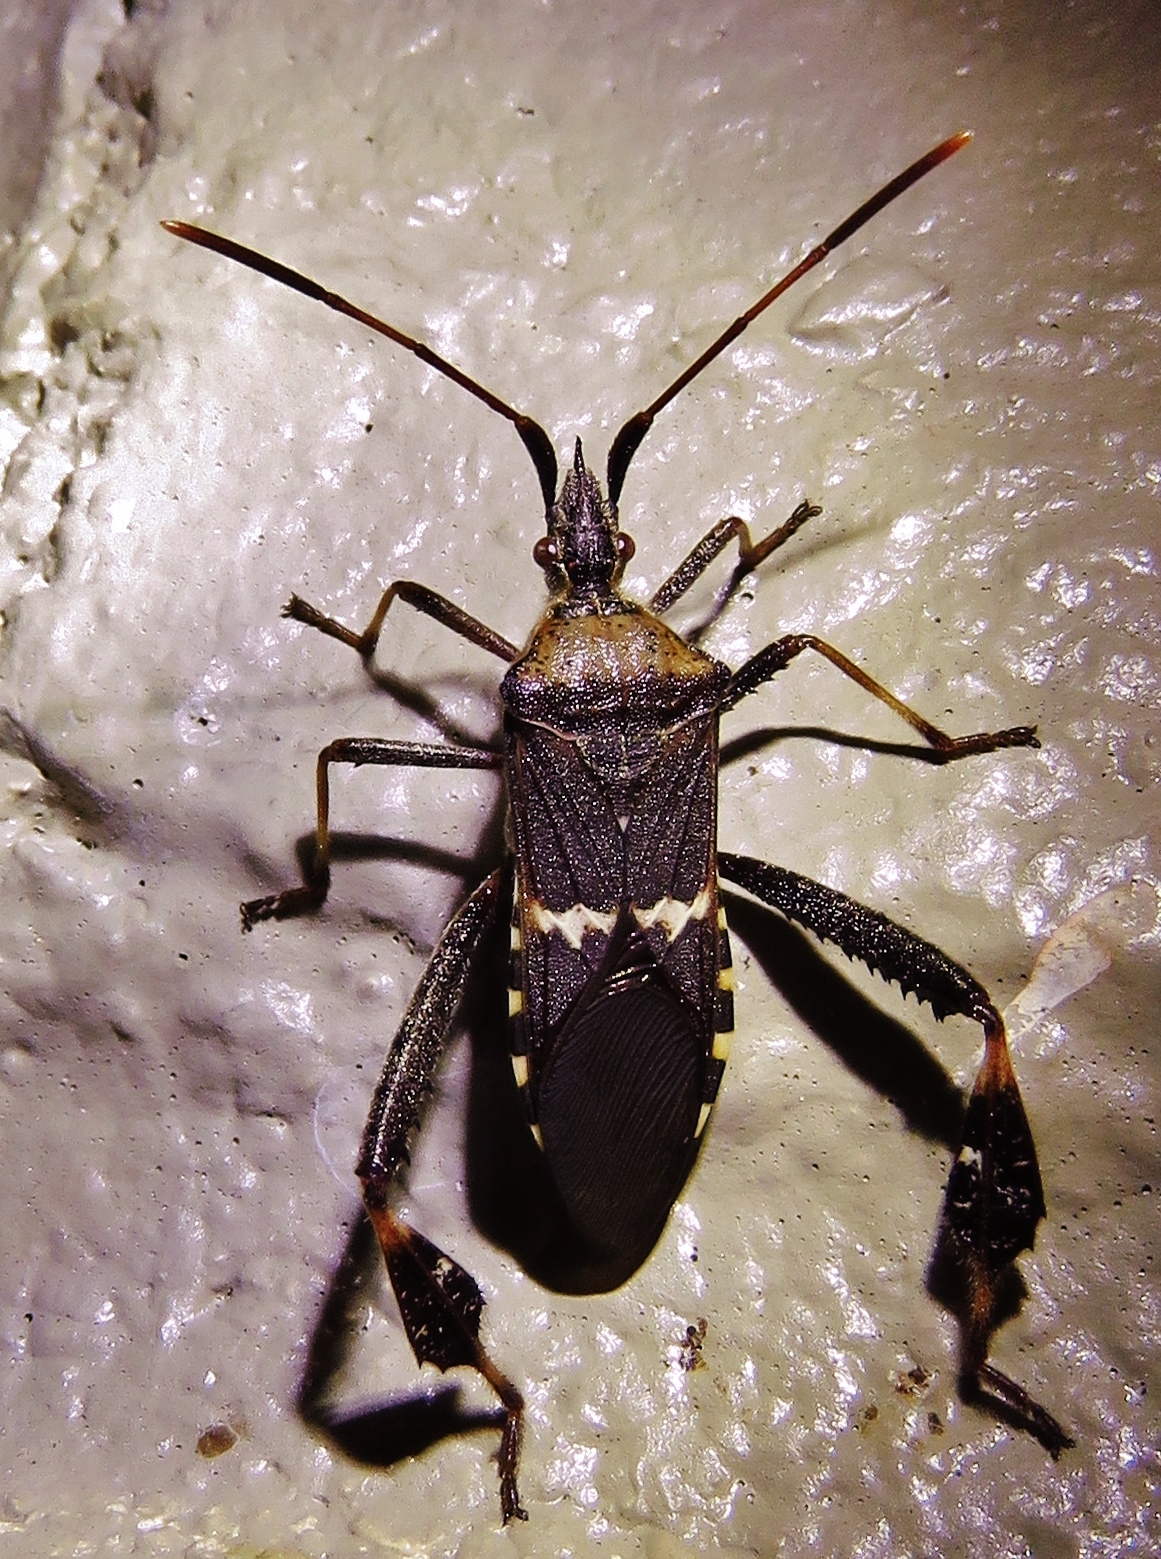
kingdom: Animalia
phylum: Arthropoda
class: Insecta
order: Hemiptera
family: Coreidae
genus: Leptoglossus
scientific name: Leptoglossus clypealis
